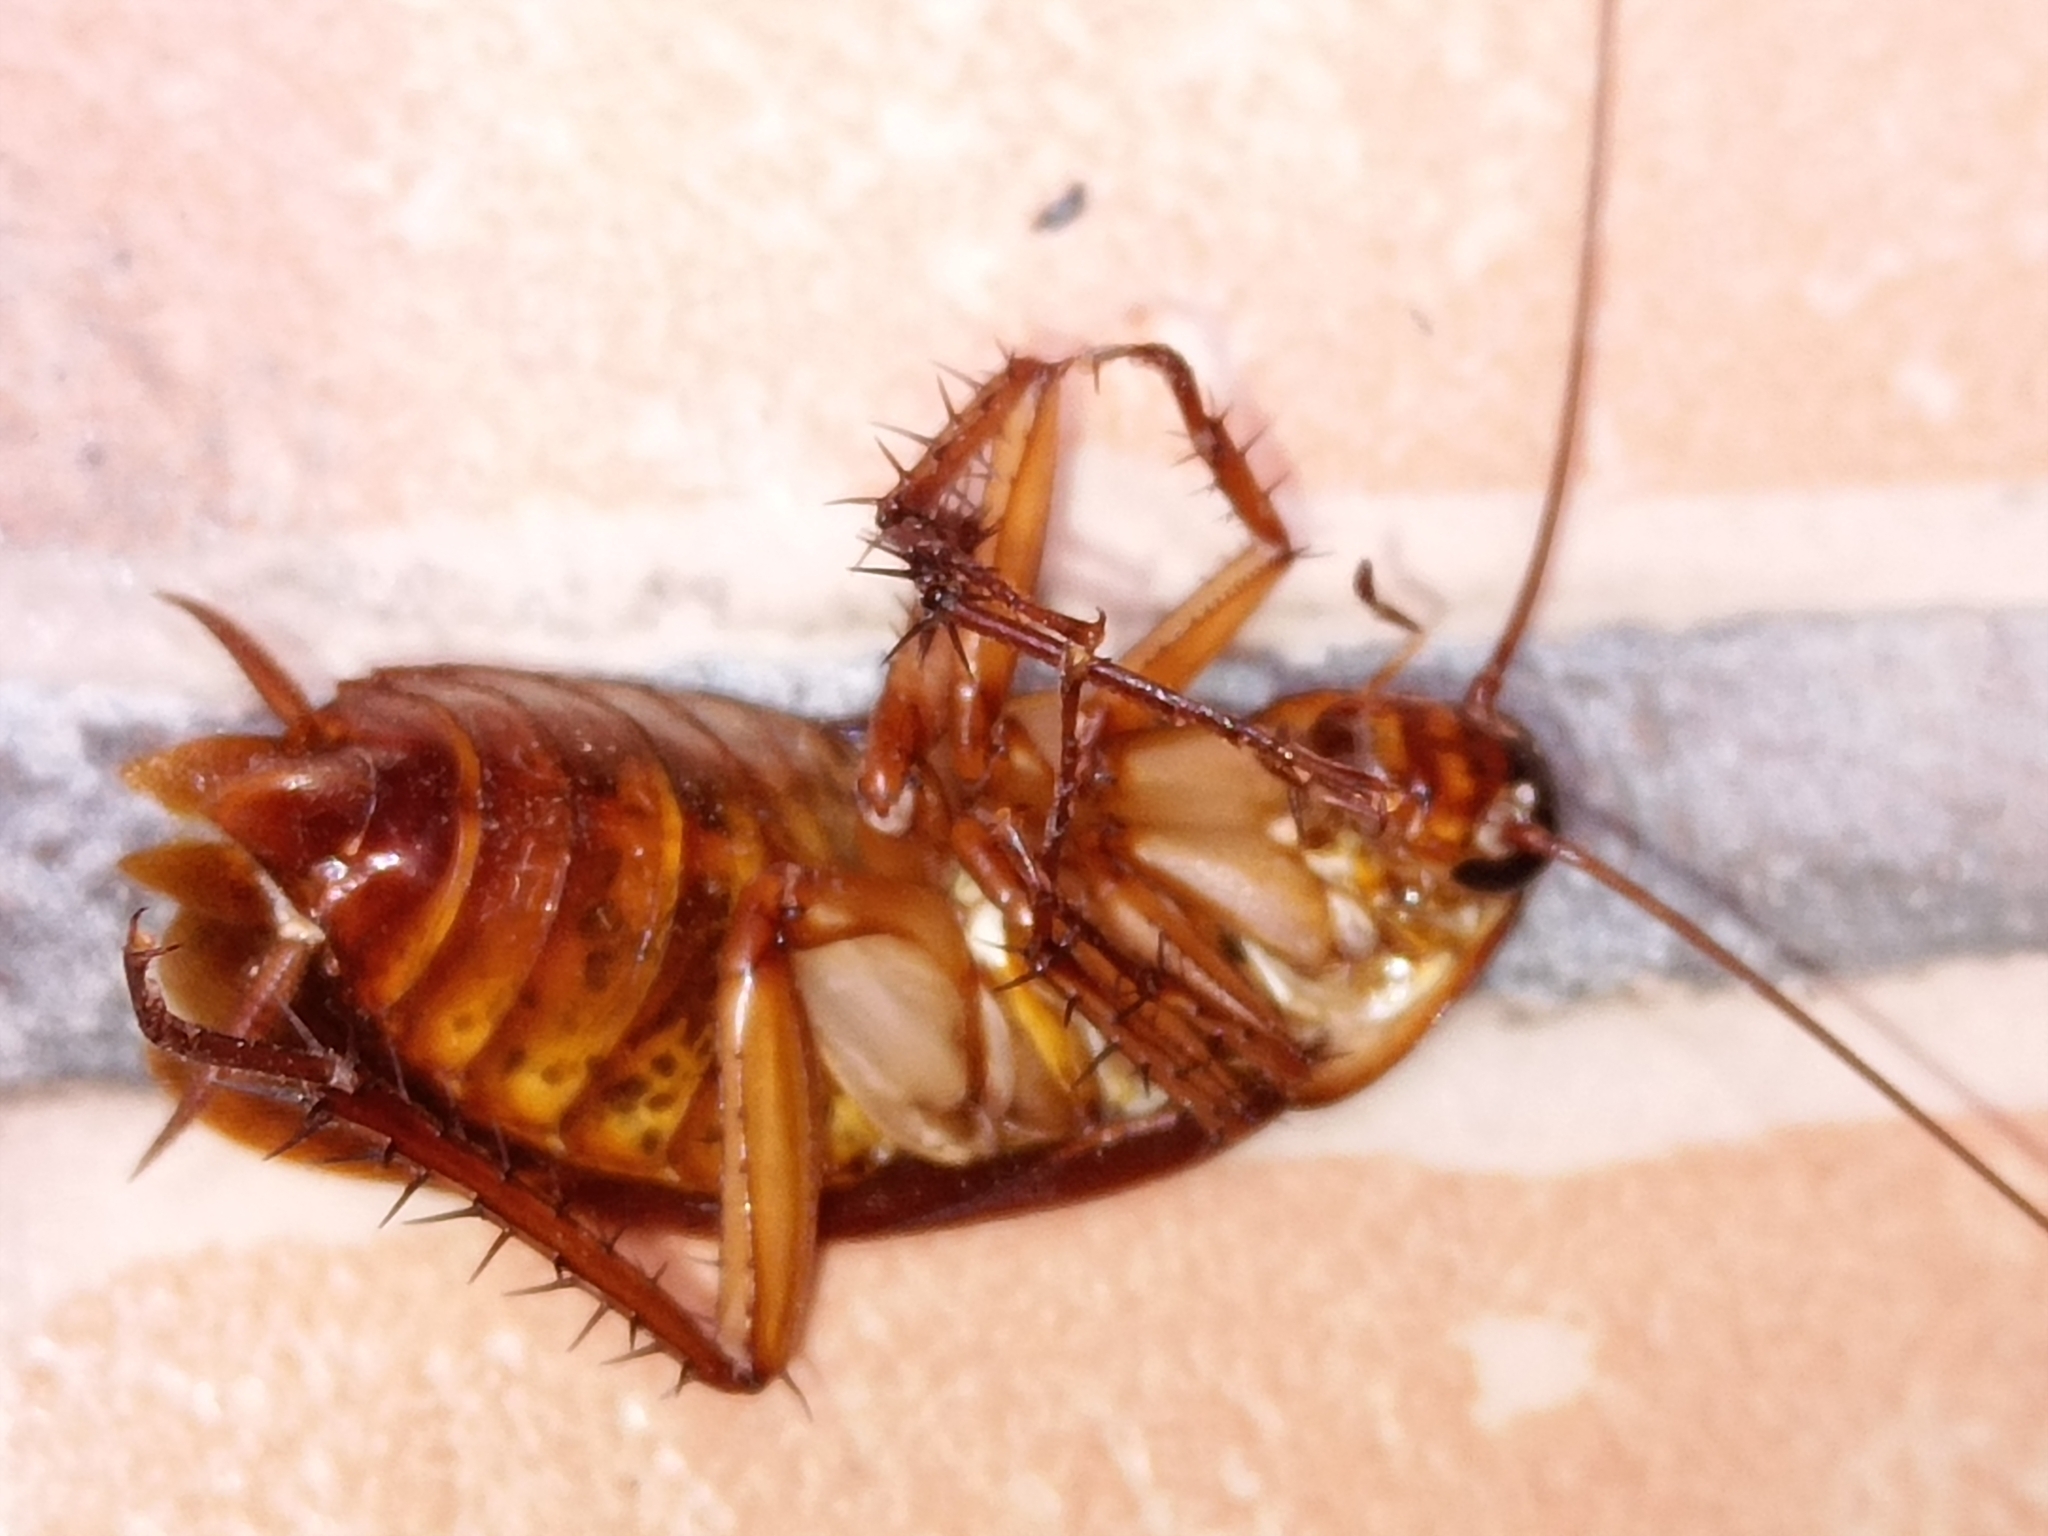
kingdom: Animalia
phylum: Arthropoda
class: Insecta
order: Blattodea
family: Blattidae
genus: Periplaneta
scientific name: Periplaneta americana
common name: American cockroach
